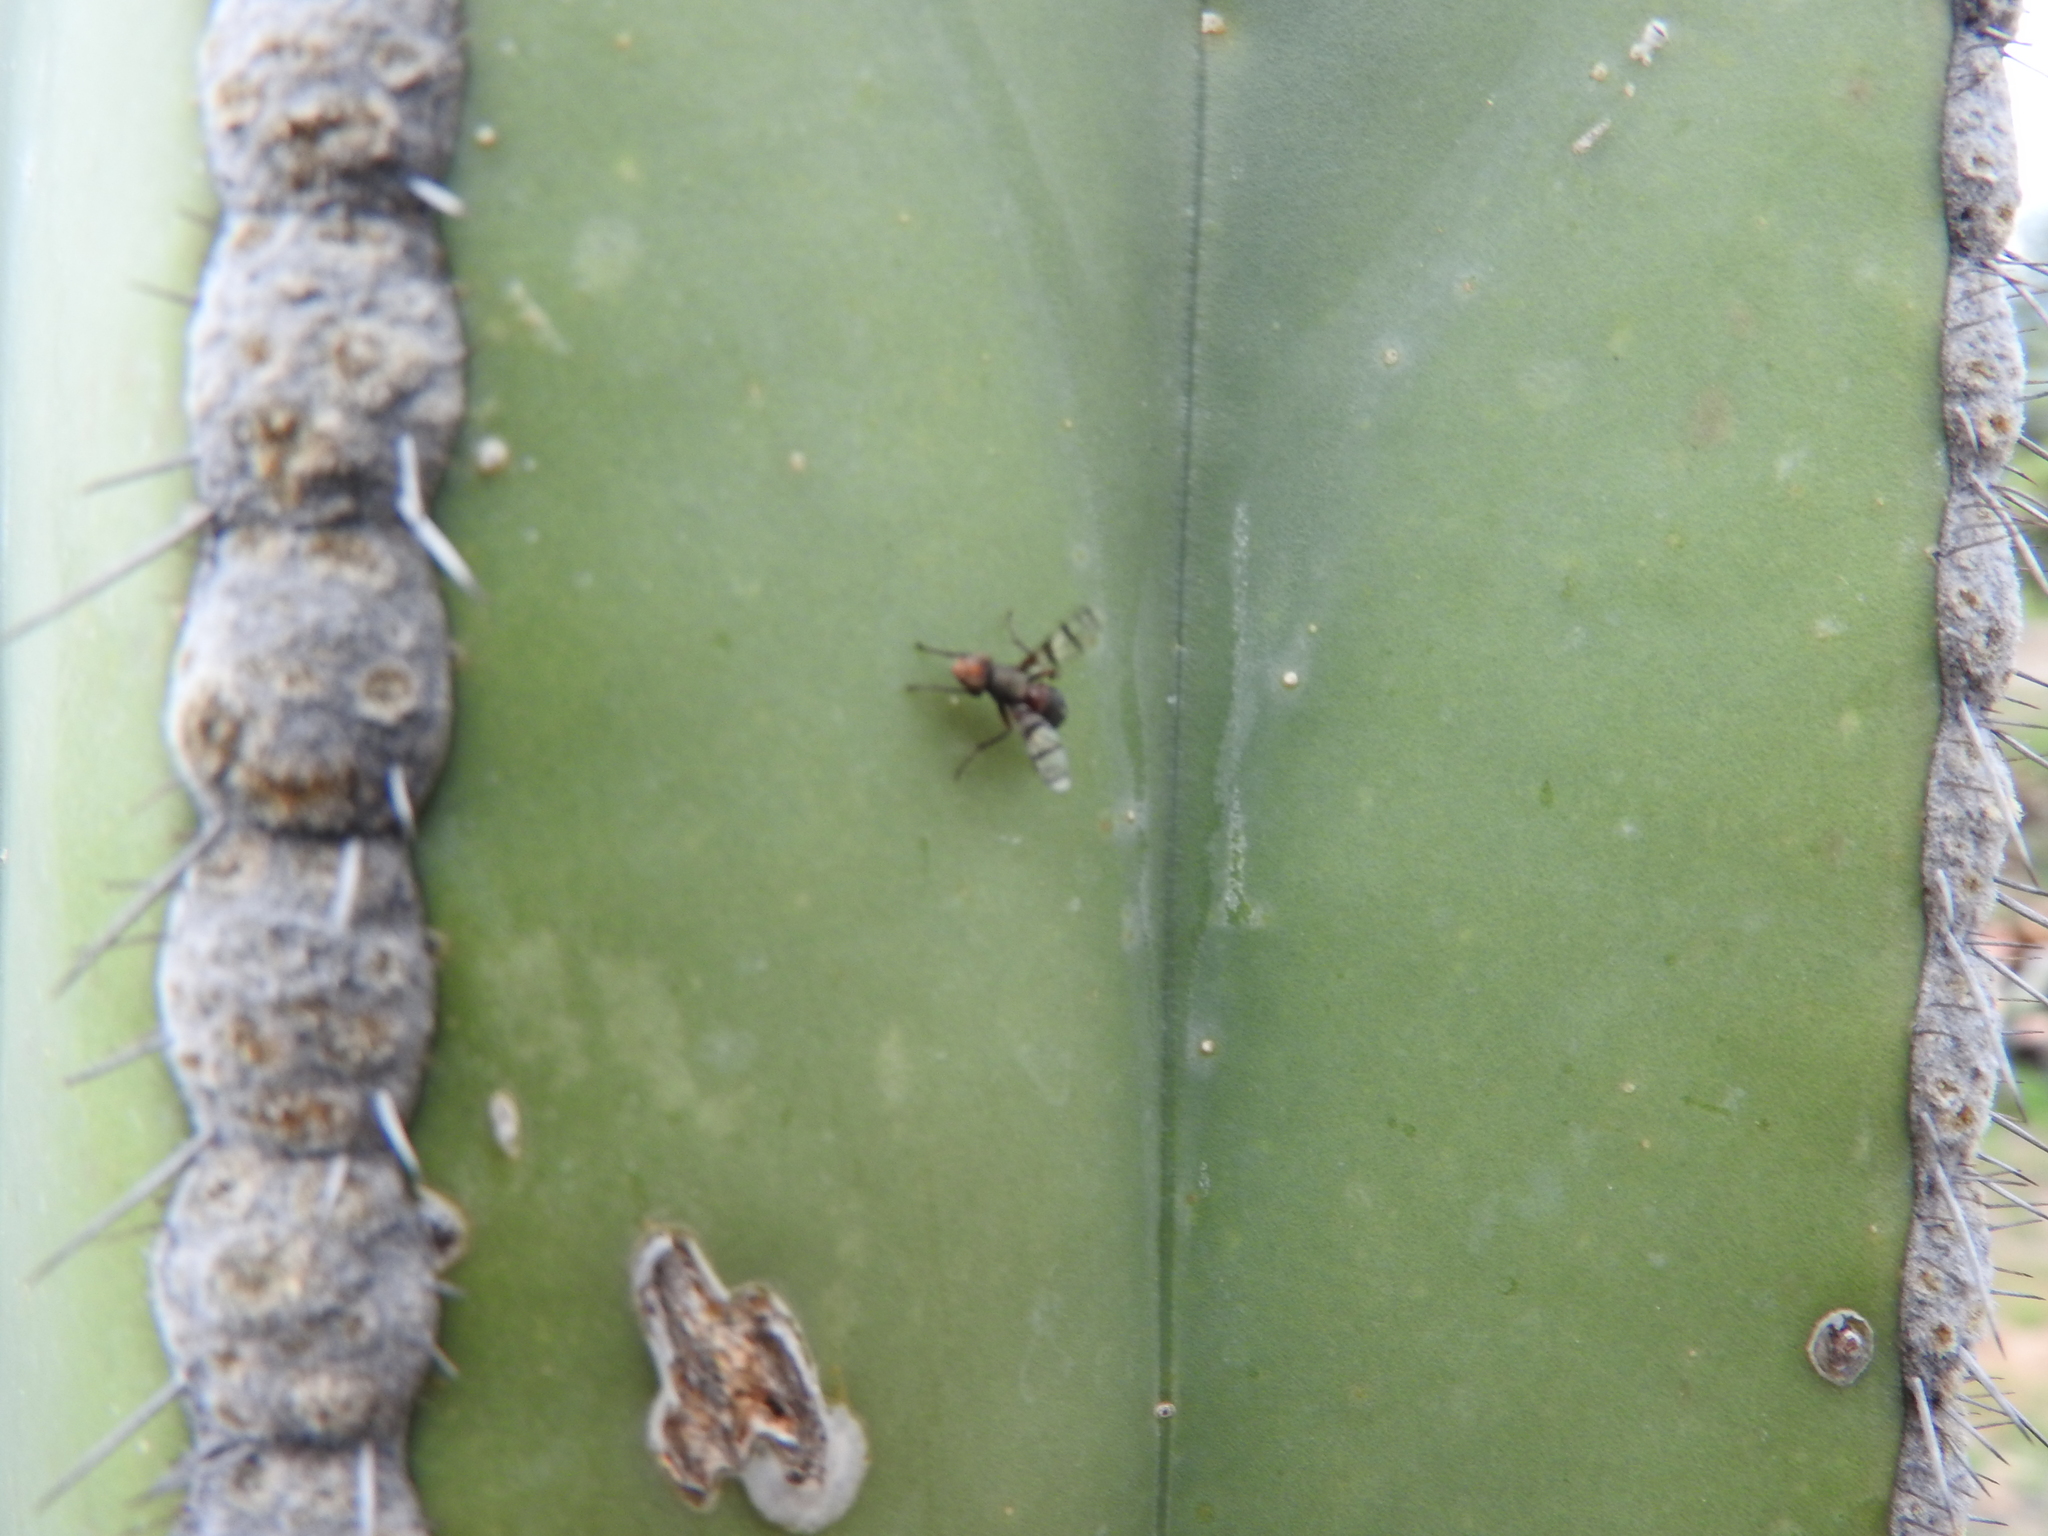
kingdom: Animalia
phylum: Arthropoda
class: Insecta
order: Diptera
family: Richardiidae
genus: Automola
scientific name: Automola rufa
